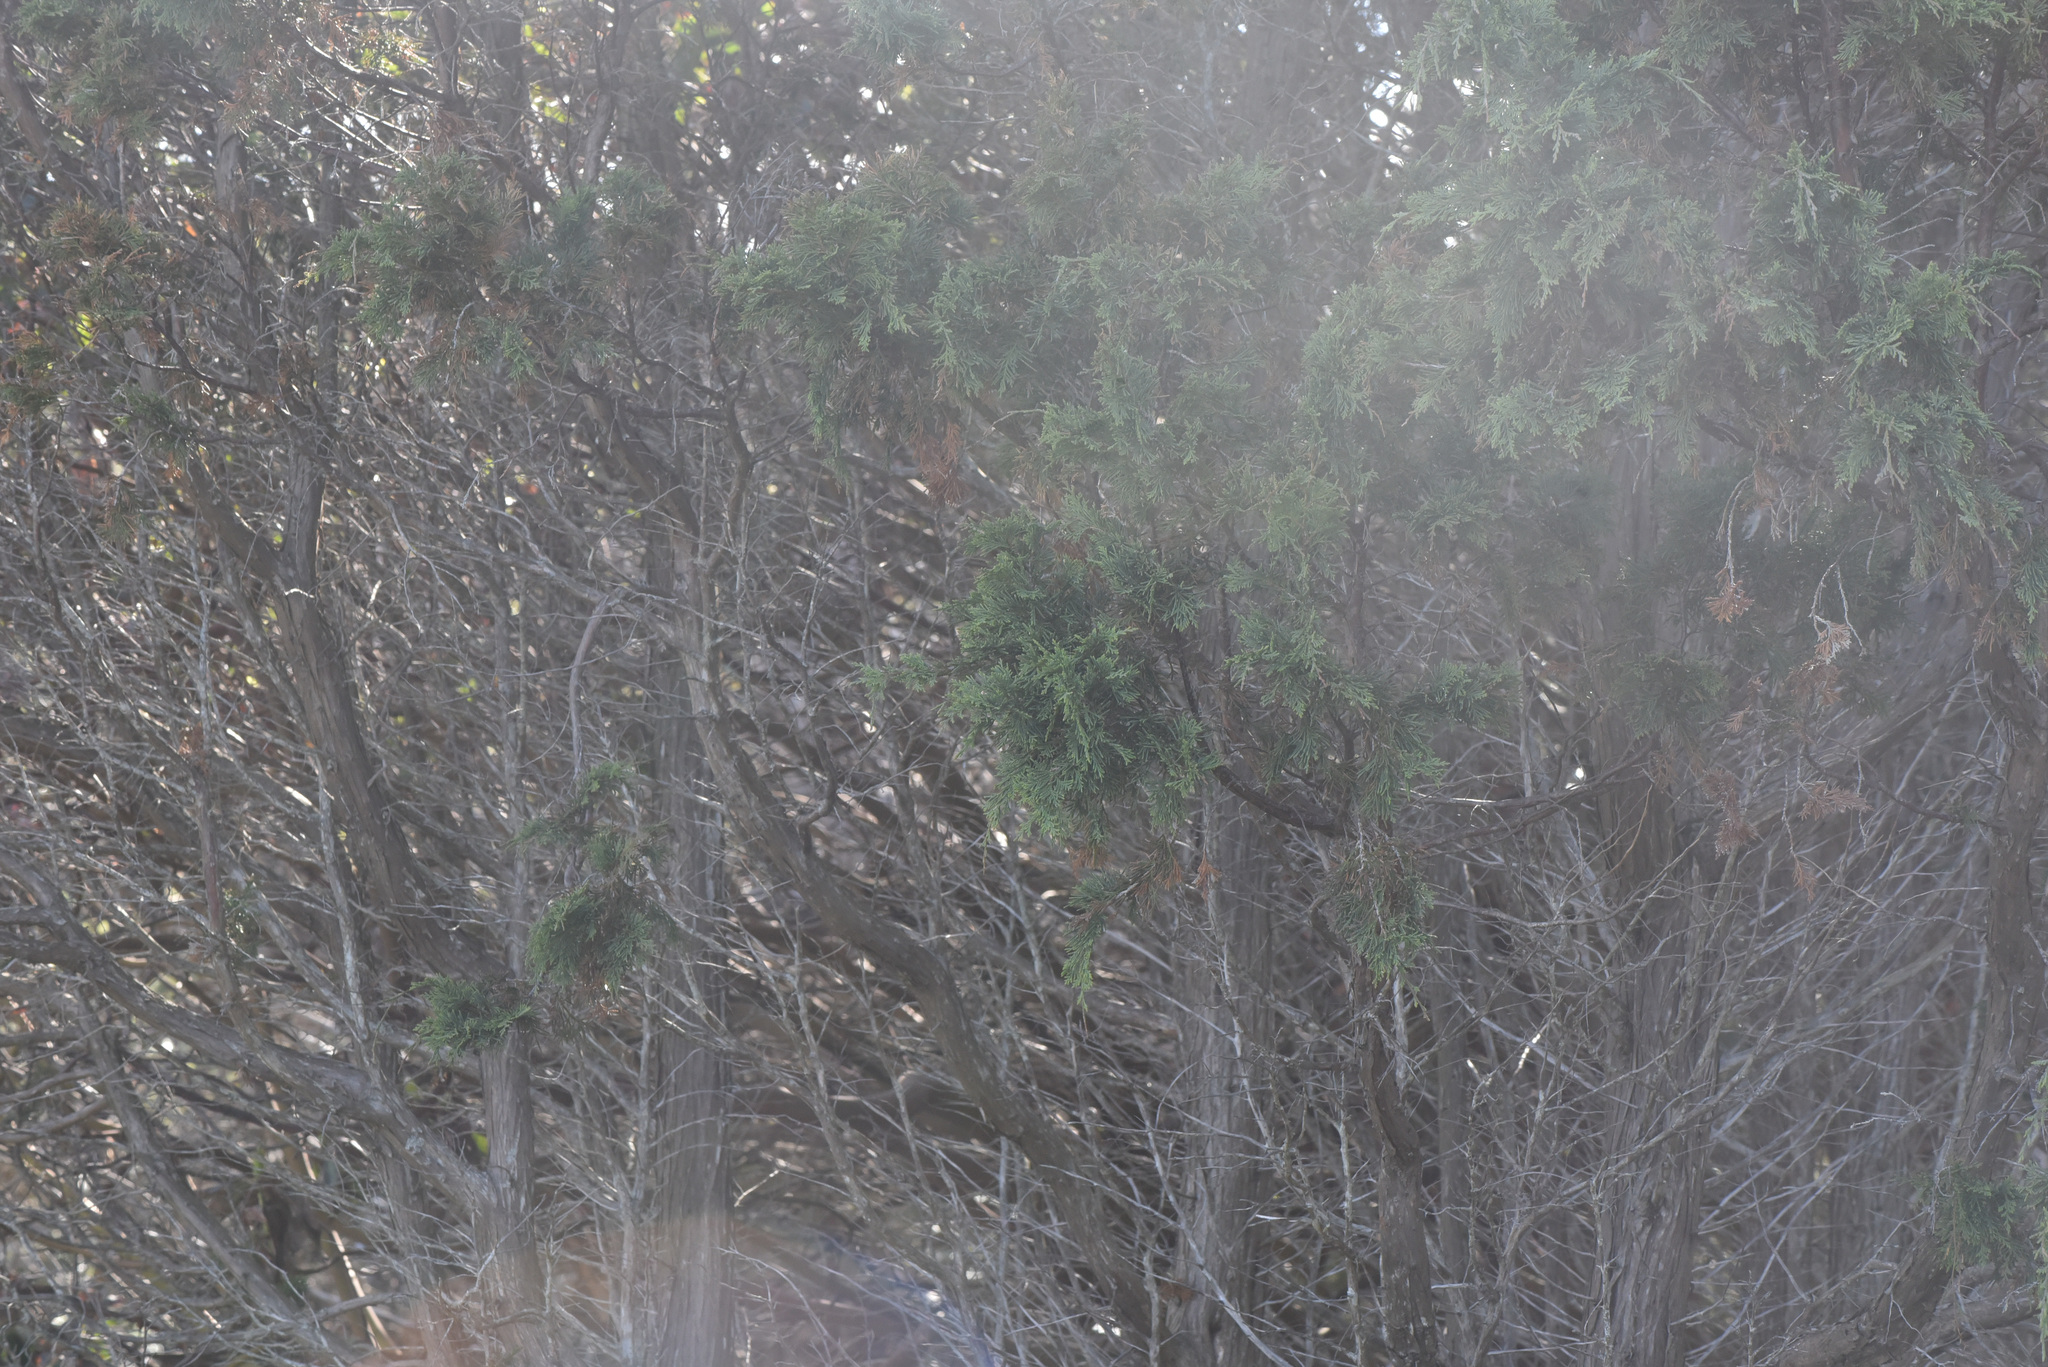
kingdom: Plantae
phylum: Tracheophyta
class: Pinopsida
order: Pinales
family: Cupressaceae
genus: Juniperus
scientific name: Juniperus scopulorum
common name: Rocky mountain juniper
